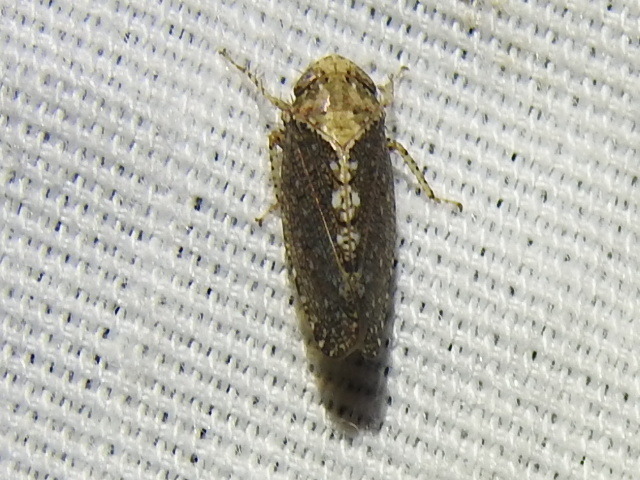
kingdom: Animalia
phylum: Arthropoda
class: Insecta
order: Hemiptera
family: Cicadellidae
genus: Excultanus
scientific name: Excultanus excultus
